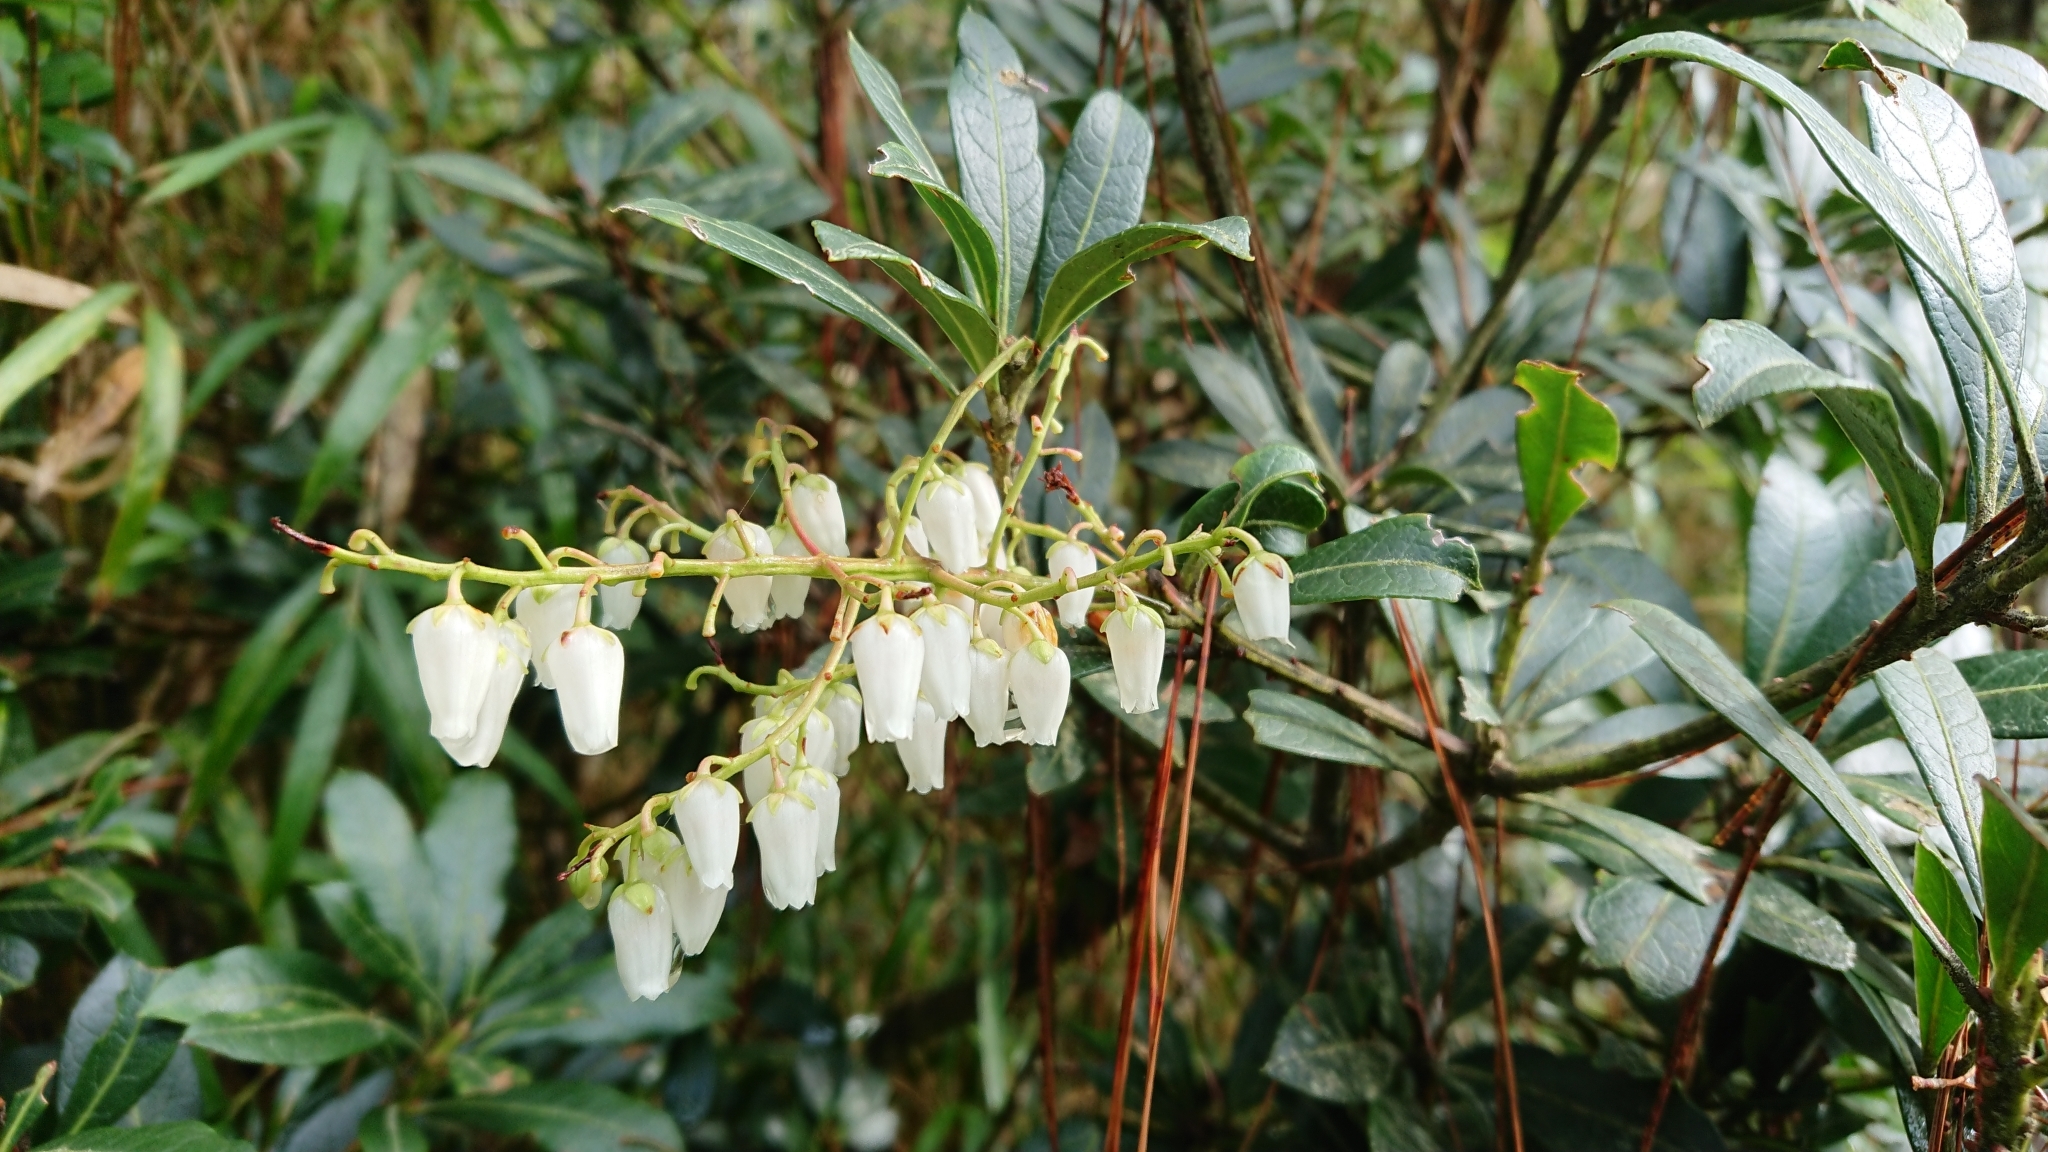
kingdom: Plantae
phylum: Tracheophyta
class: Magnoliopsida
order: Ericales
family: Ericaceae
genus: Pieris
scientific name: Pieris japonica
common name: Japanese pieris
